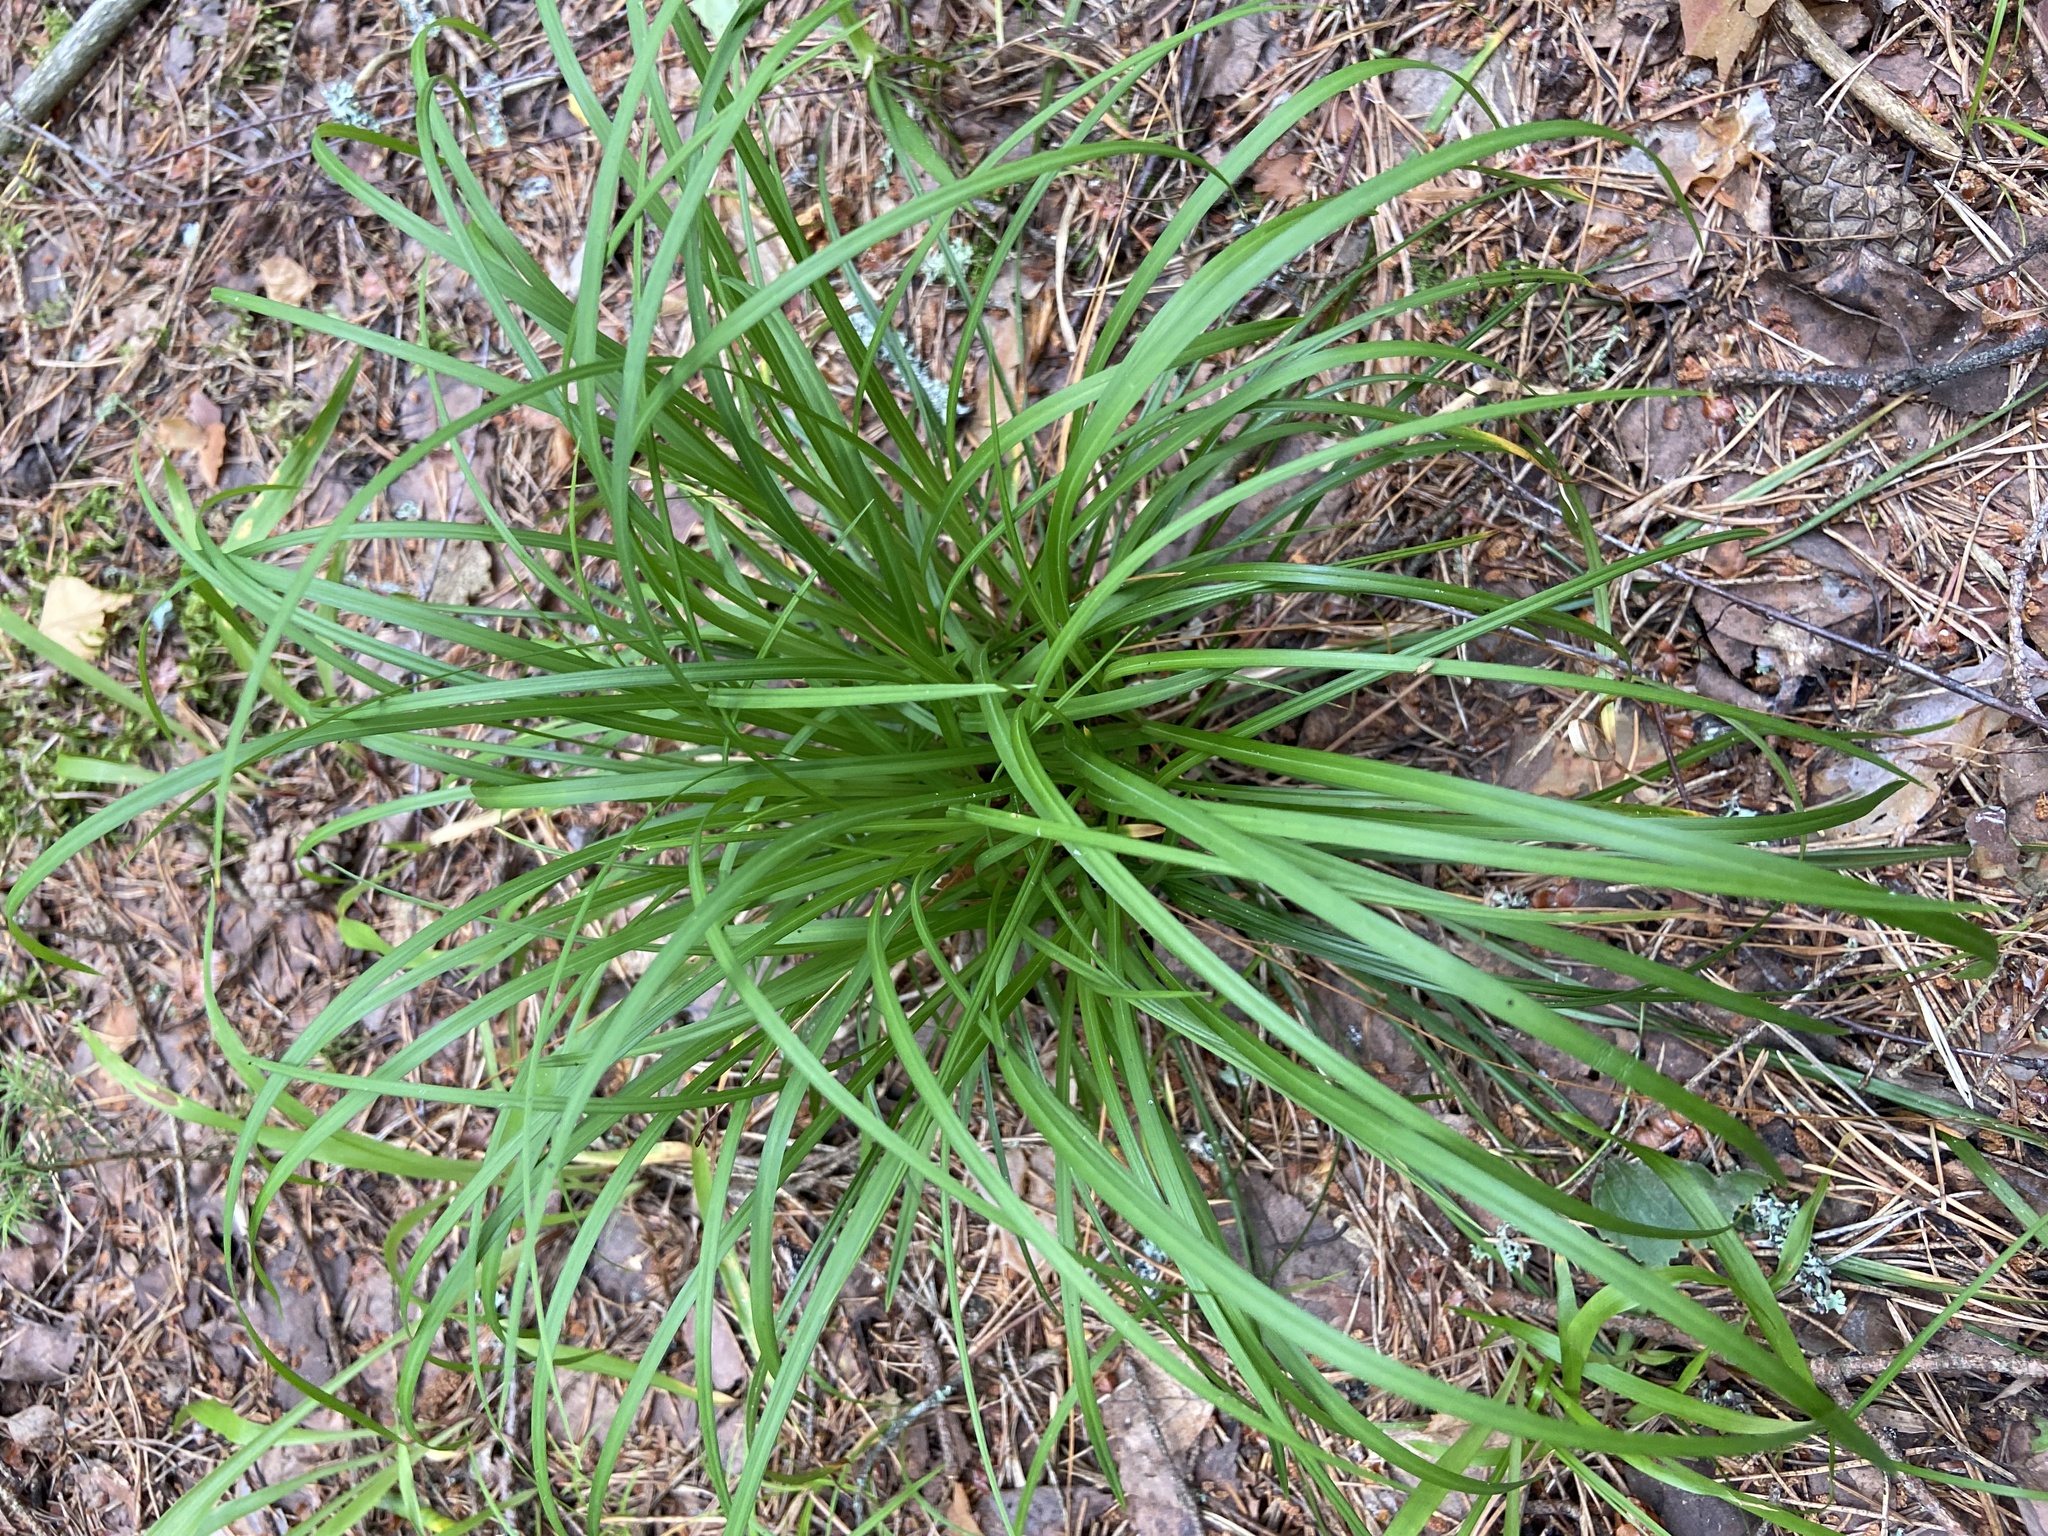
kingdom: Plantae
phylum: Tracheophyta
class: Liliopsida
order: Poales
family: Cyperaceae
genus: Carex
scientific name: Carex digitata
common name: Fingered sedge
